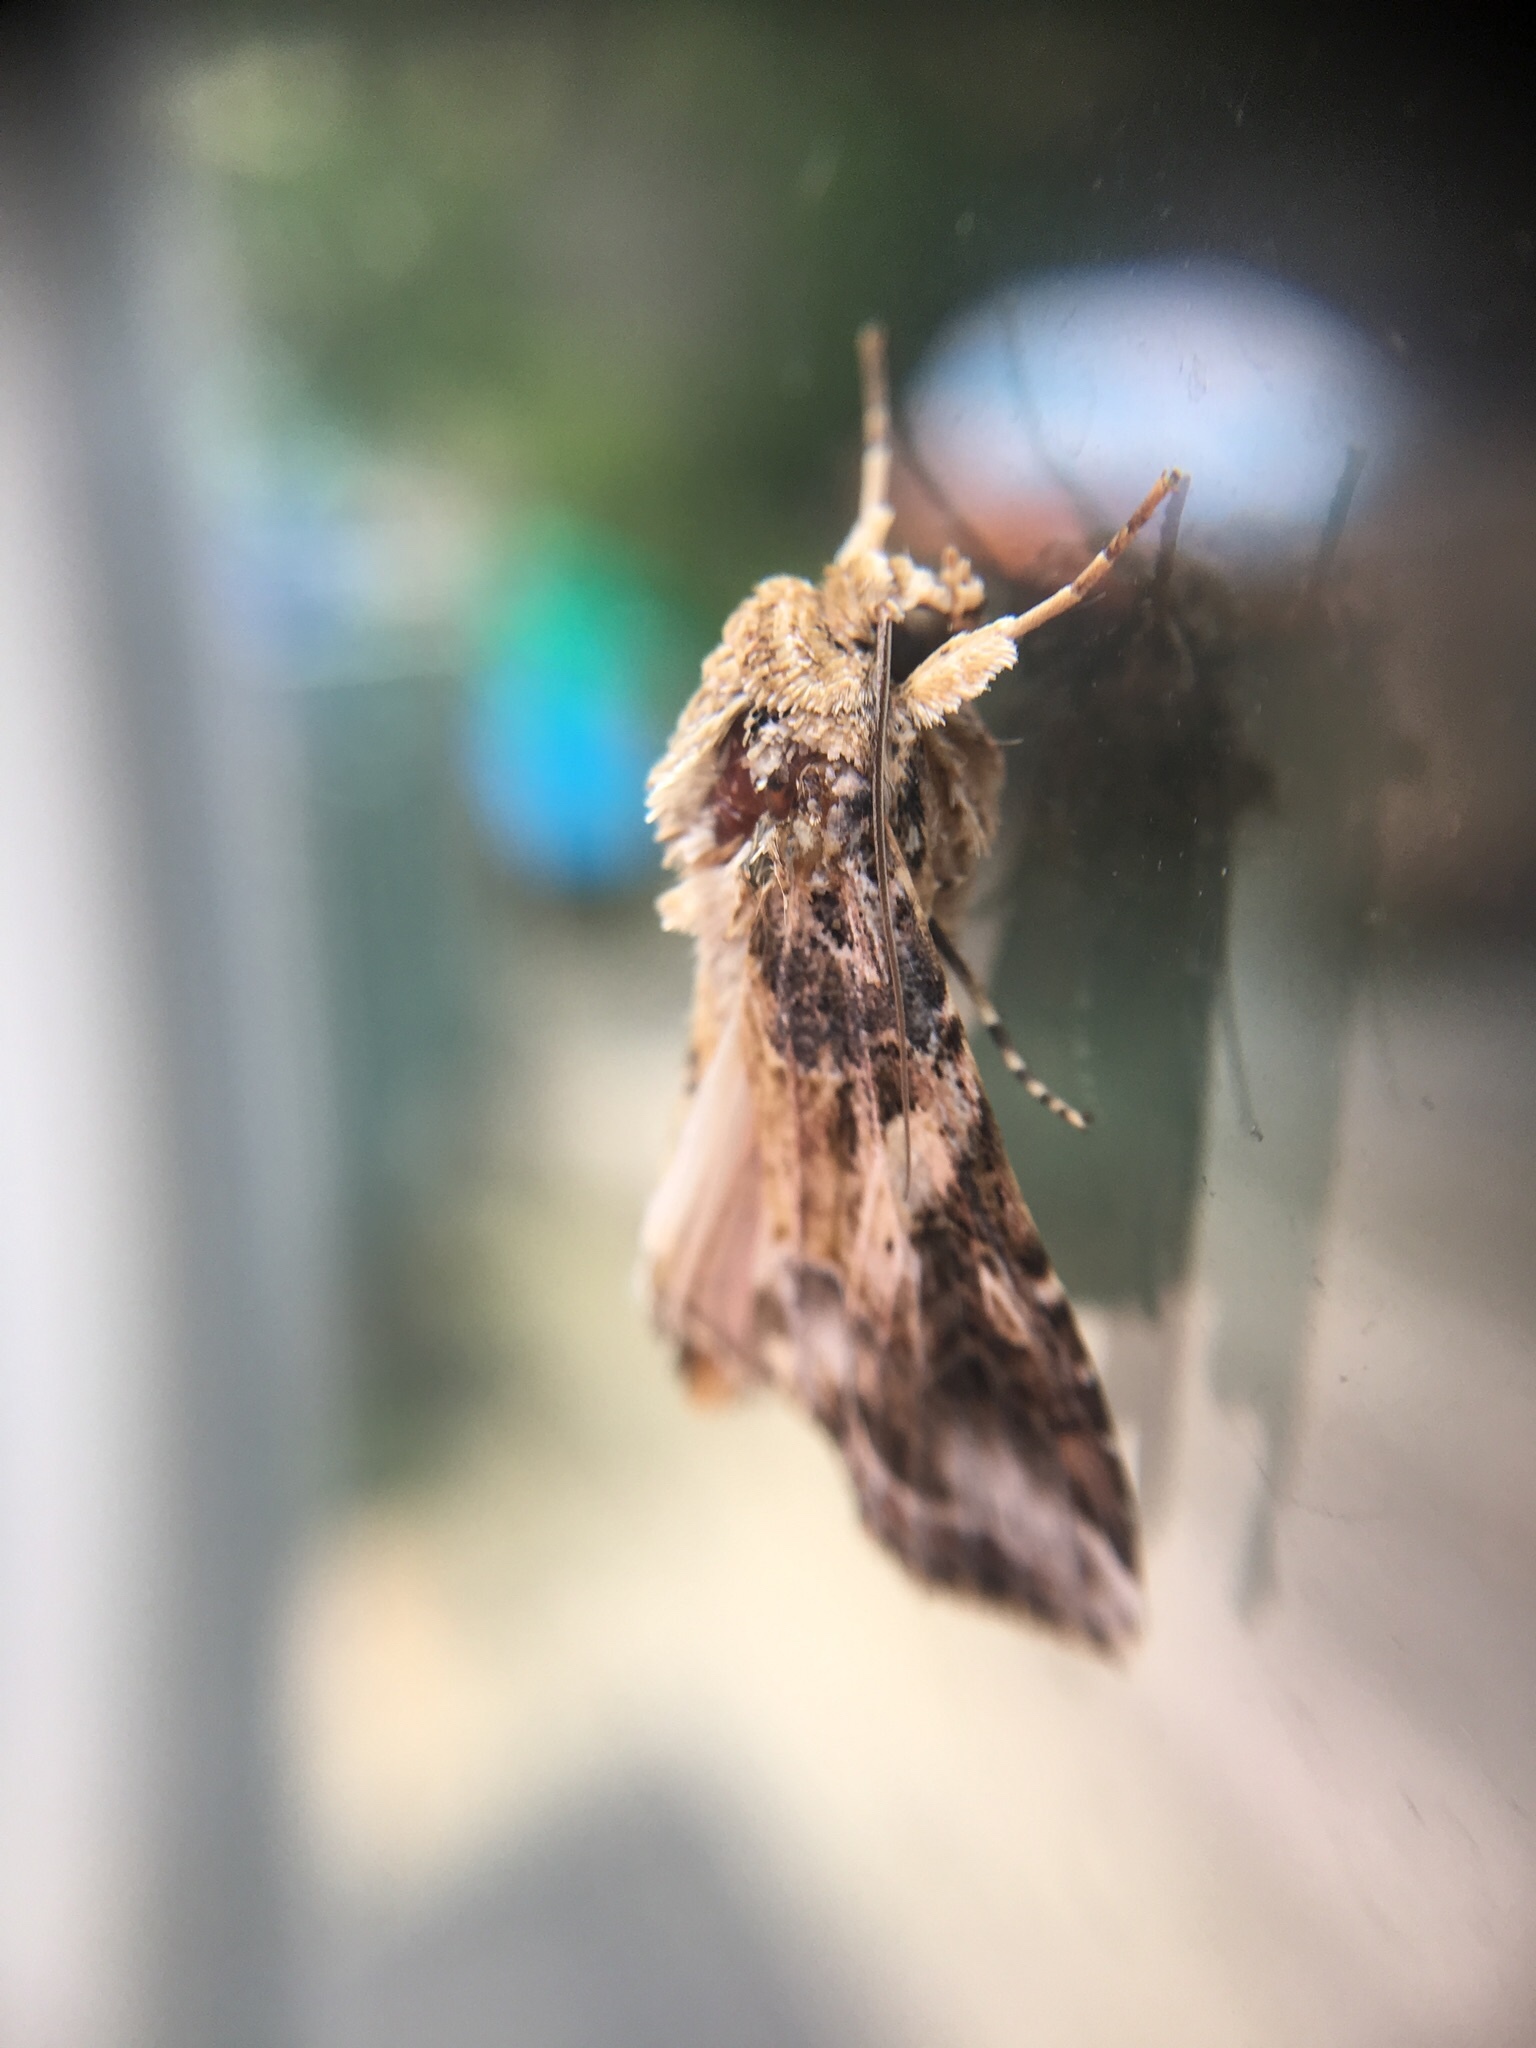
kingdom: Animalia
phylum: Arthropoda
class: Insecta
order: Lepidoptera
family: Noctuidae
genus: Spodoptera
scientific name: Spodoptera ornithogalli
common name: Yellow-striped armyworm
